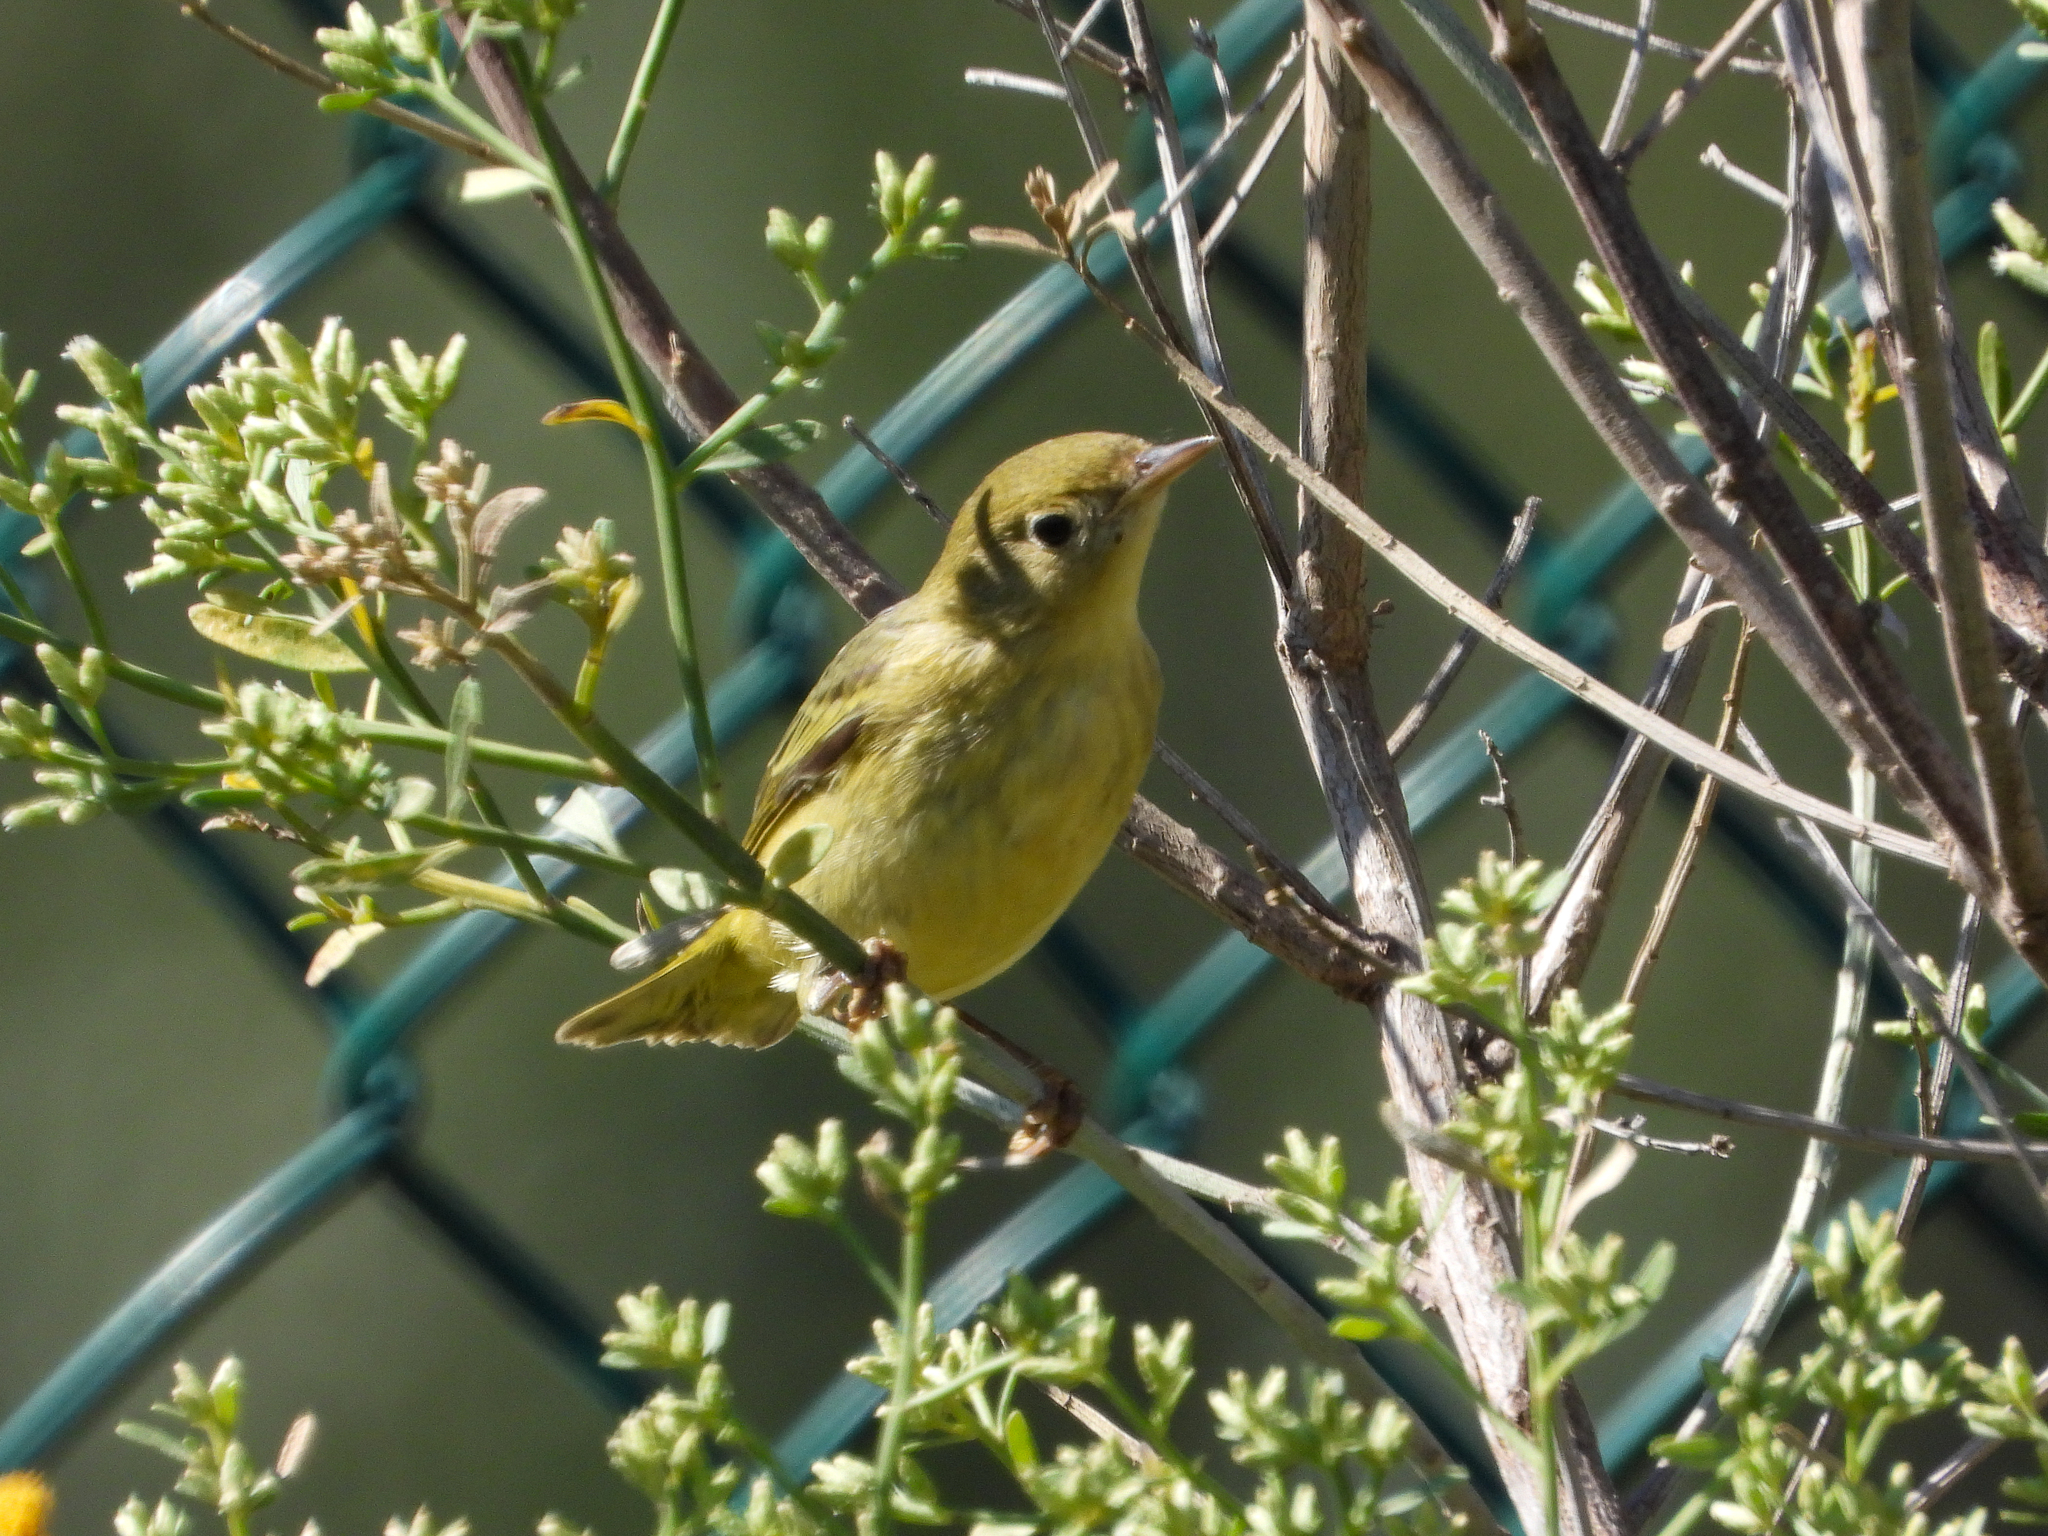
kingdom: Animalia
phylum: Chordata
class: Aves
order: Passeriformes
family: Parulidae
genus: Setophaga
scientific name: Setophaga petechia
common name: Yellow warbler
